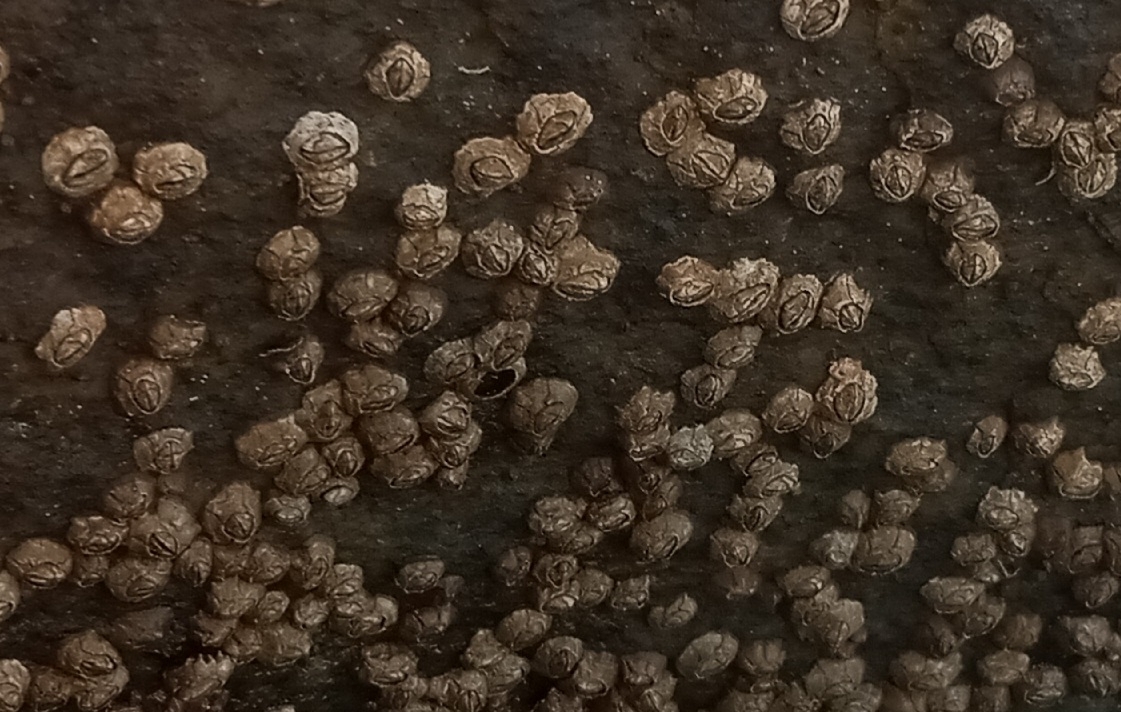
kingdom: Animalia
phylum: Arthropoda
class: Maxillopoda
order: Sessilia
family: Chthamalidae
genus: Chthamalus
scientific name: Chthamalus fragilis
